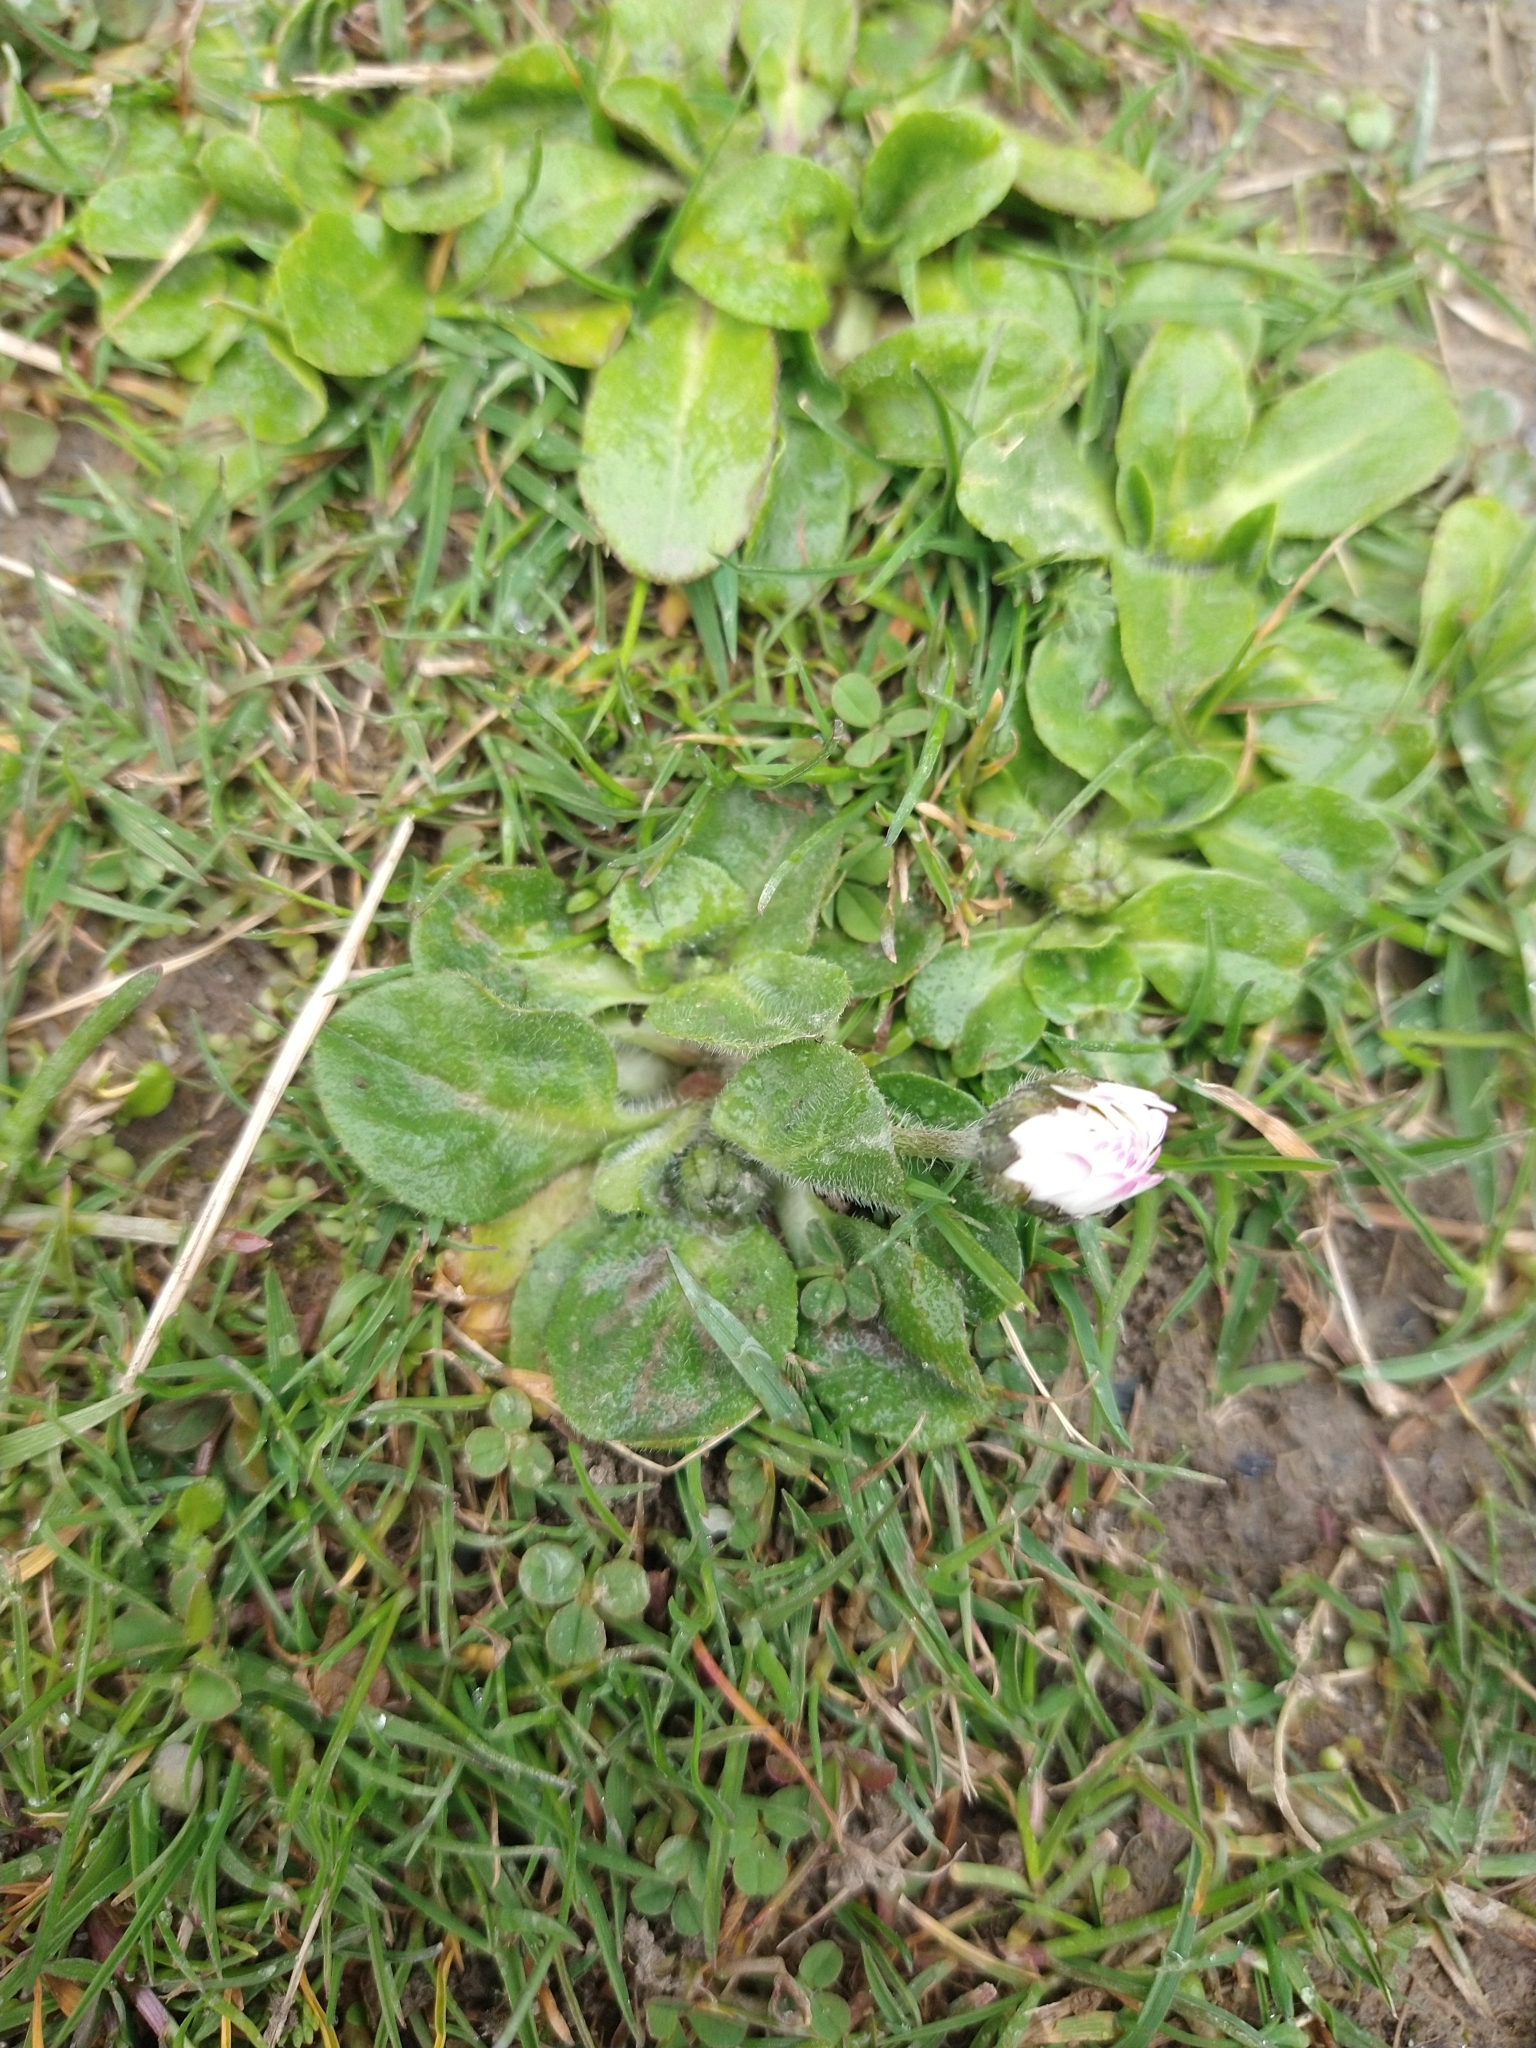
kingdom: Plantae
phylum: Tracheophyta
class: Magnoliopsida
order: Asterales
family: Asteraceae
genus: Bellis
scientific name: Bellis perennis
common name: Lawndaisy
